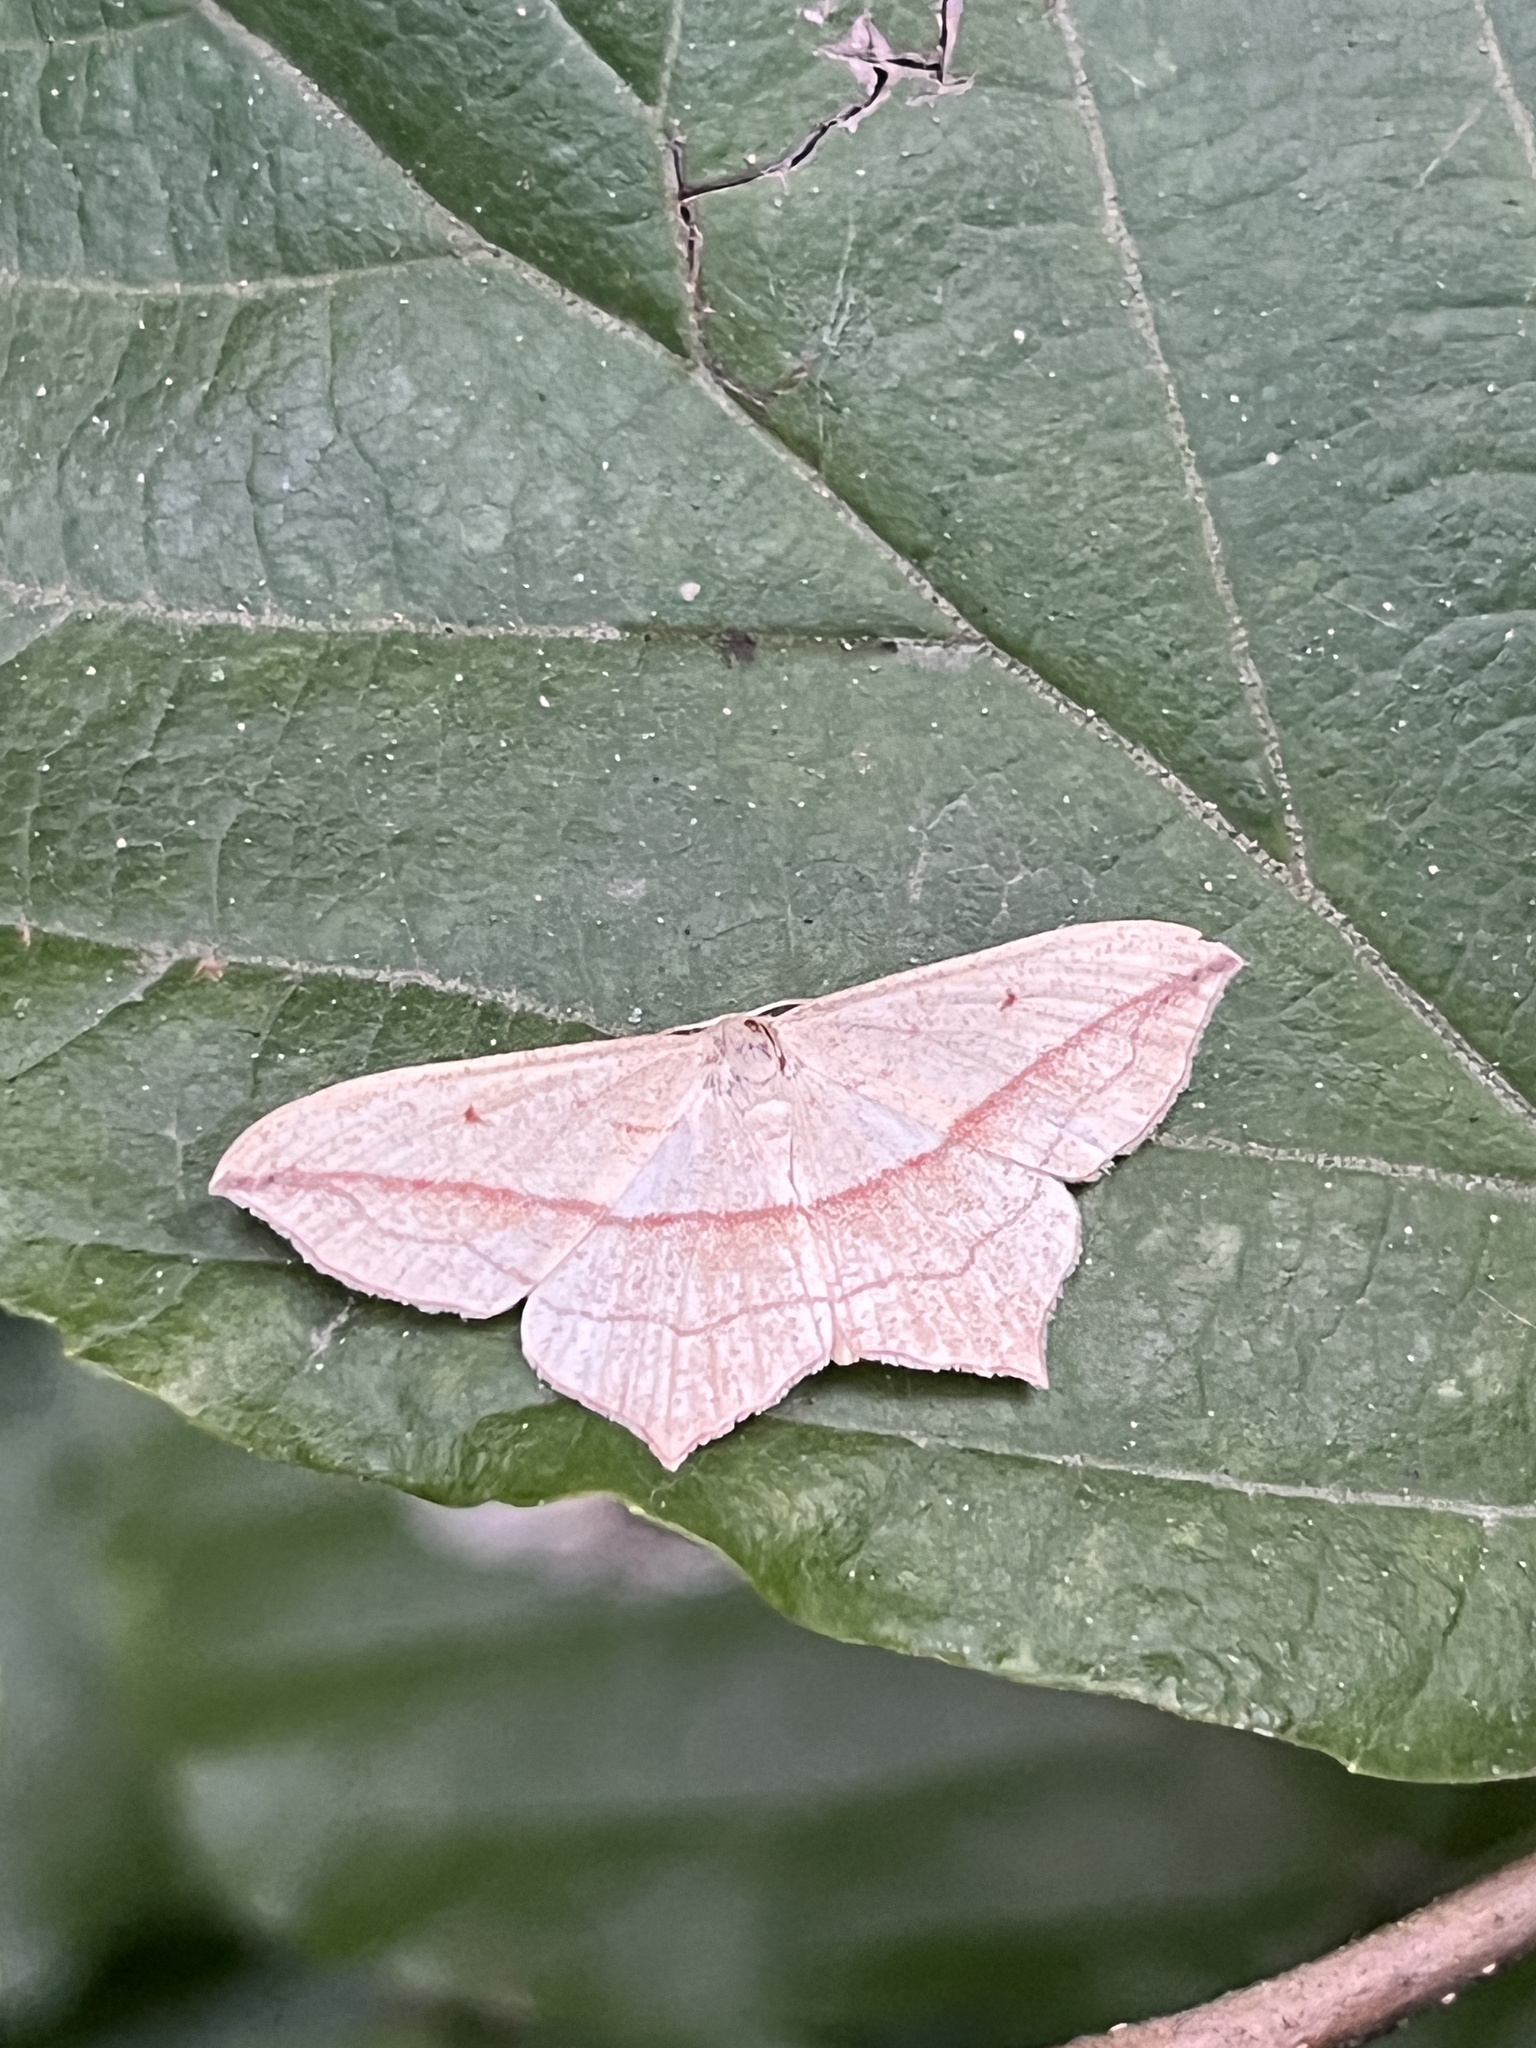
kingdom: Animalia
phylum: Arthropoda
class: Insecta
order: Lepidoptera
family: Geometridae
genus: Timandra
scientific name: Timandra comae
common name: Blood-vein
